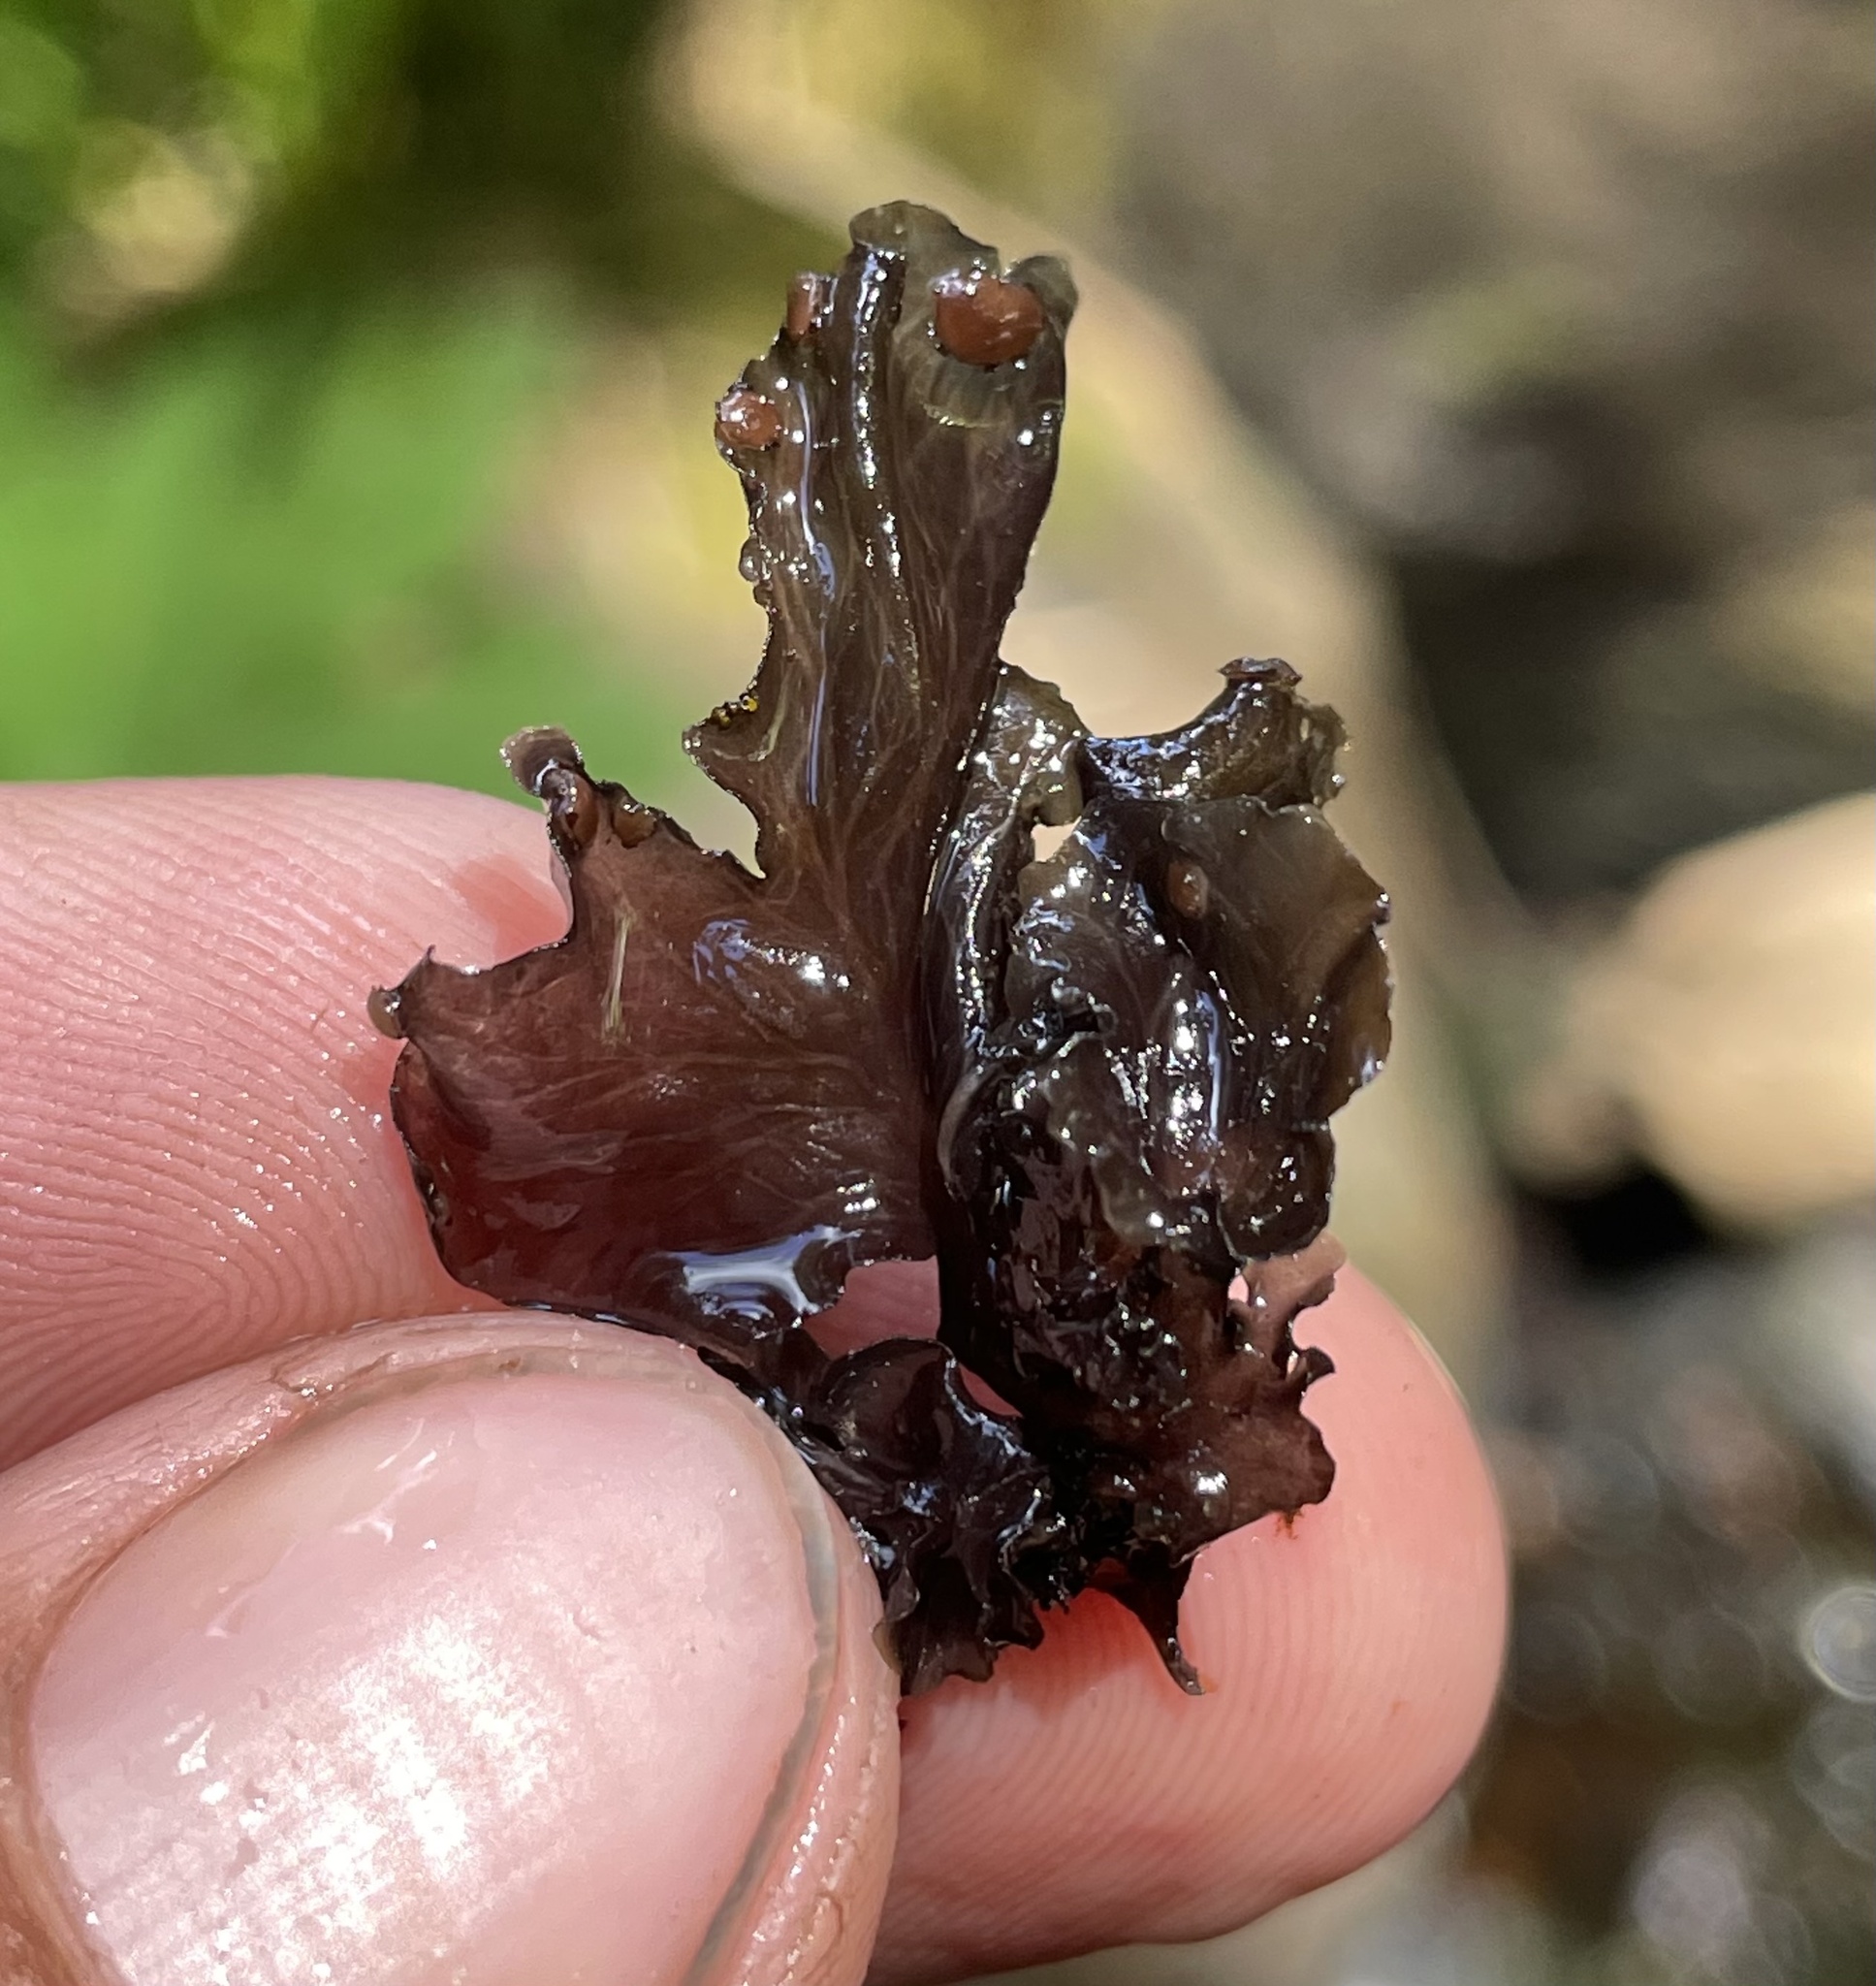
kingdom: Fungi
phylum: Ascomycota
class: Lecanoromycetes
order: Peltigerales
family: Peltigeraceae
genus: Peltigera
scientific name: Peltigera gowardii
